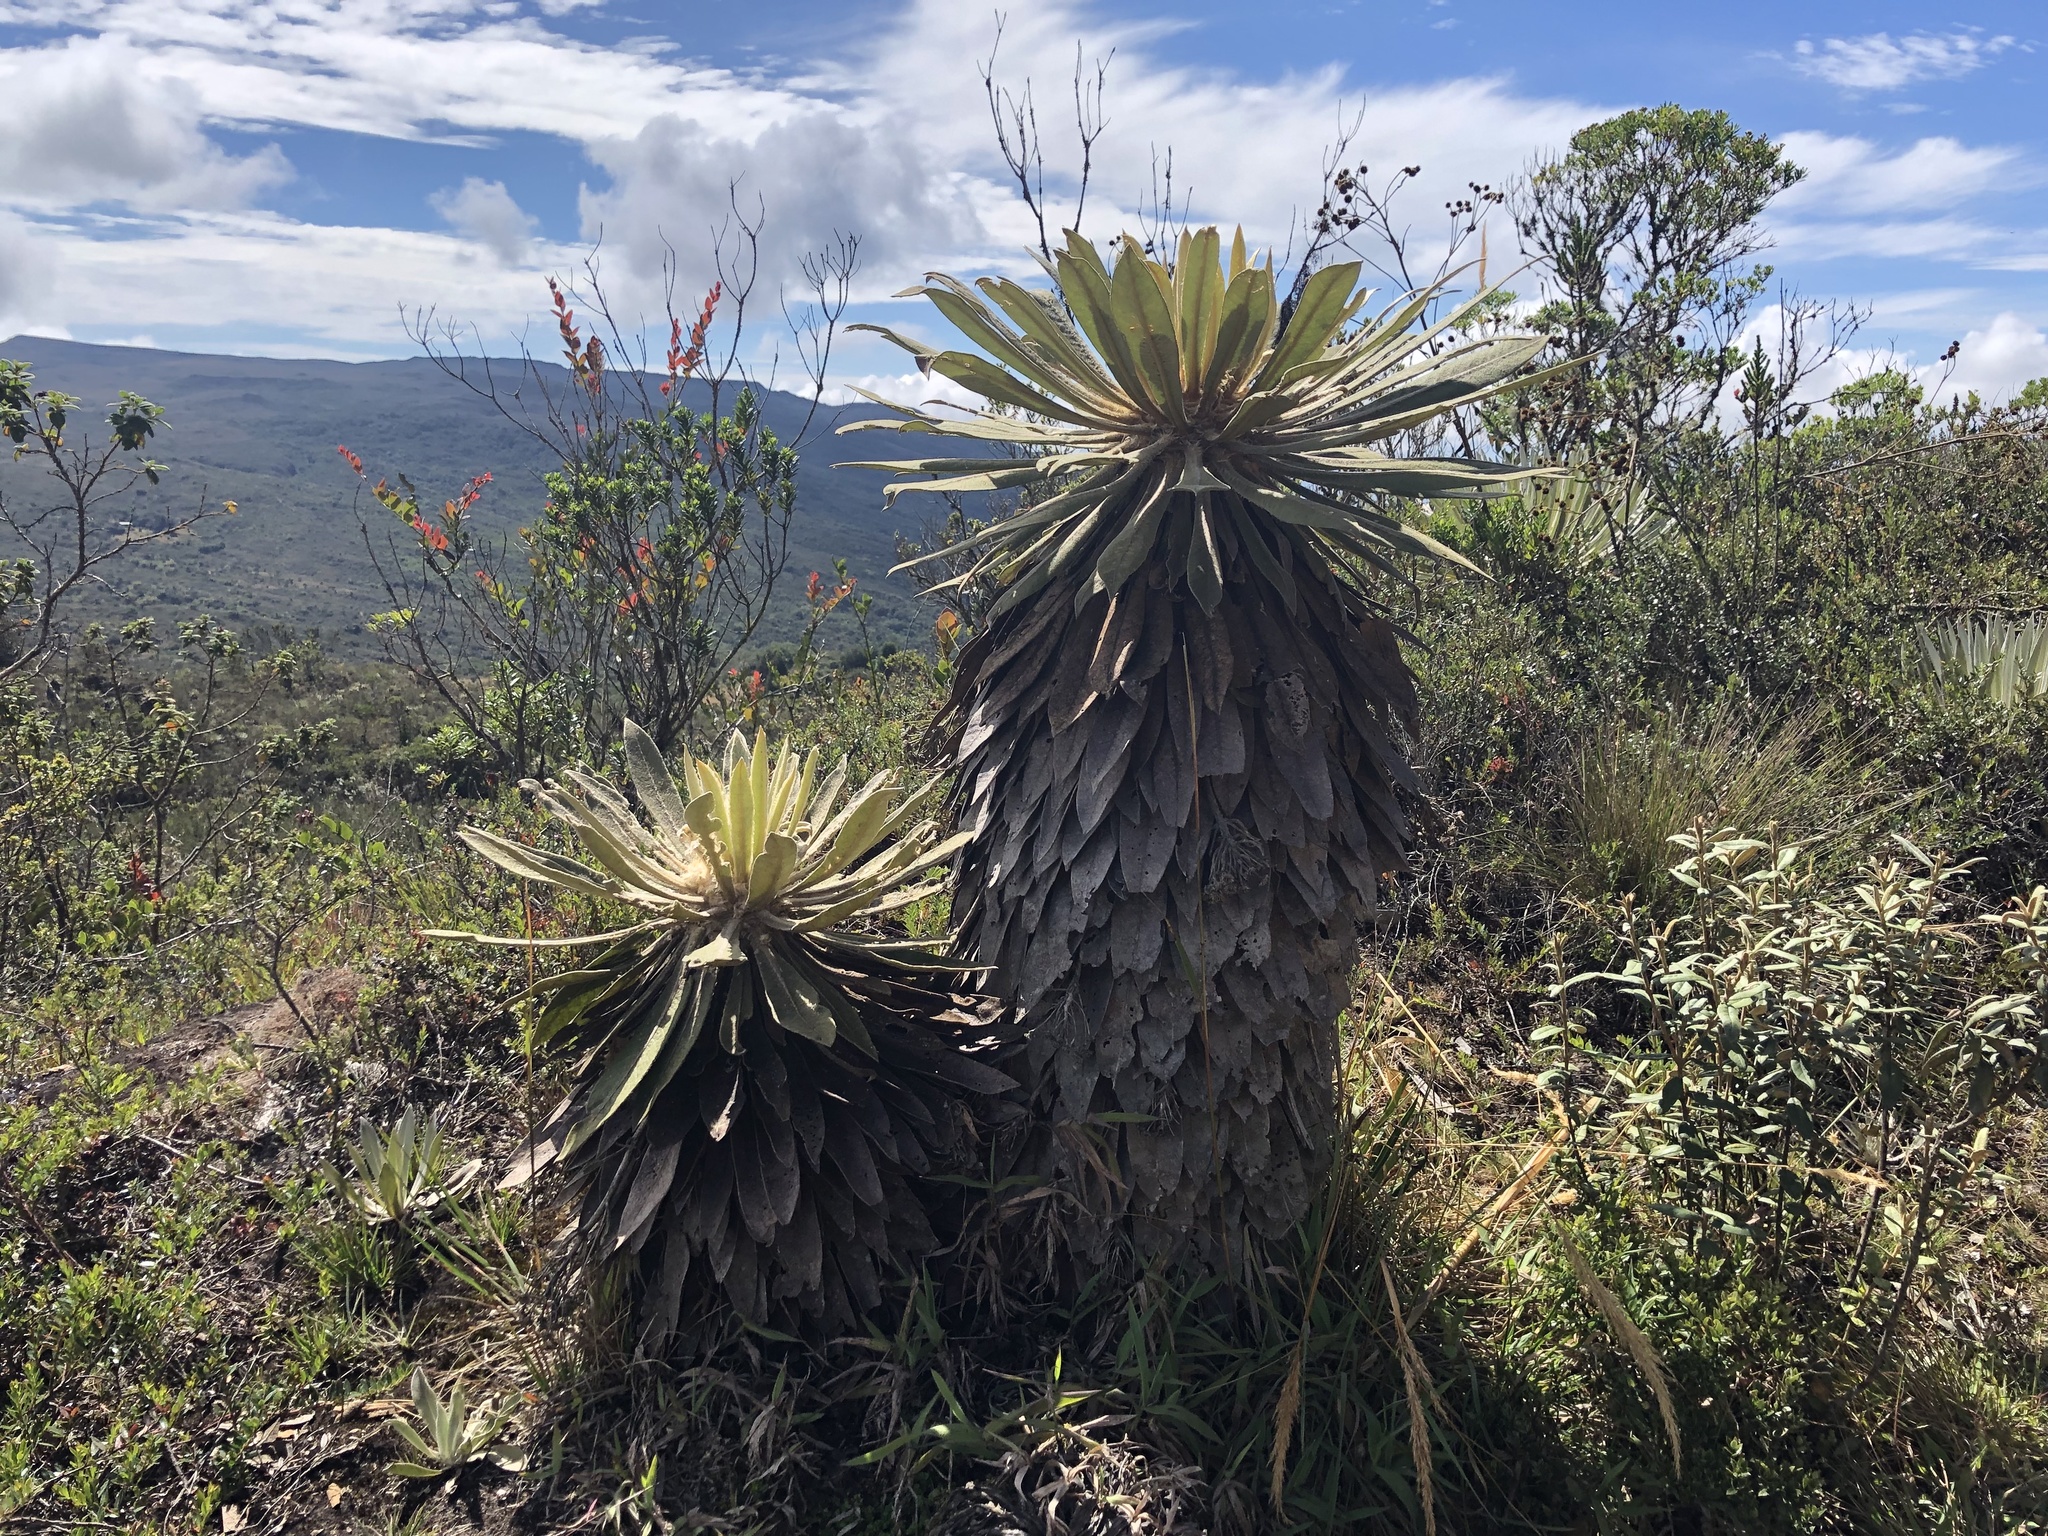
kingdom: Plantae
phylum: Tracheophyta
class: Magnoliopsida
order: Asterales
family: Asteraceae
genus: Espeletia
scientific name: Espeletia corymbosa
